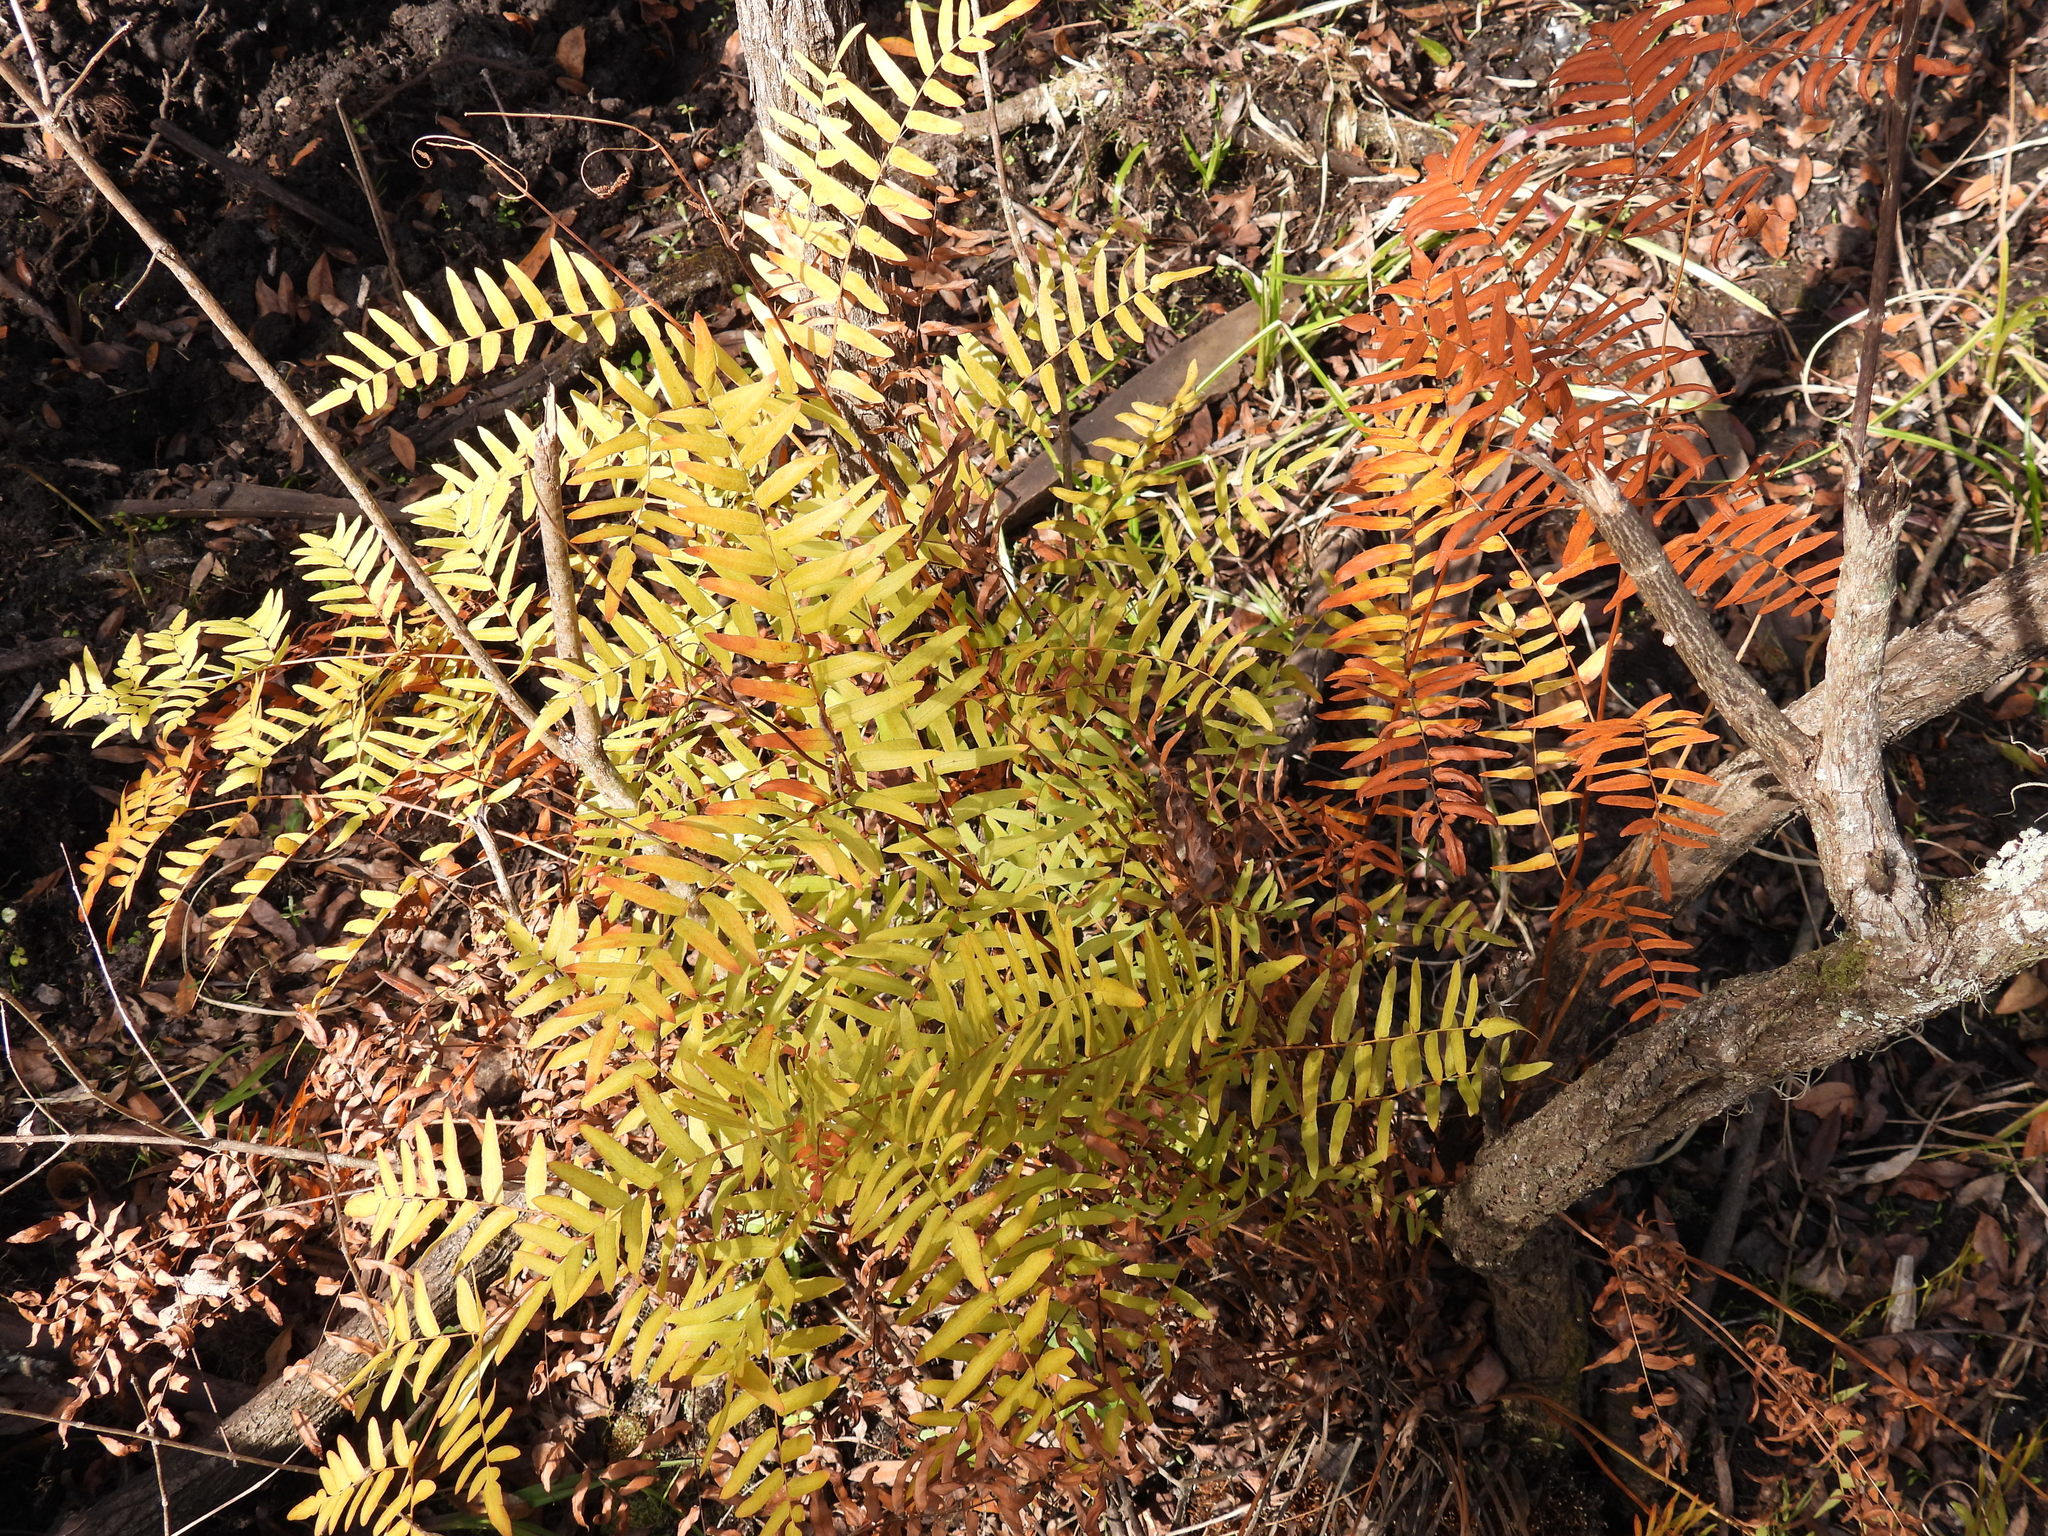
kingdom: Plantae
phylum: Tracheophyta
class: Polypodiopsida
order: Osmundales
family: Osmundaceae
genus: Osmunda
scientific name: Osmunda spectabilis
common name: American royal fern
